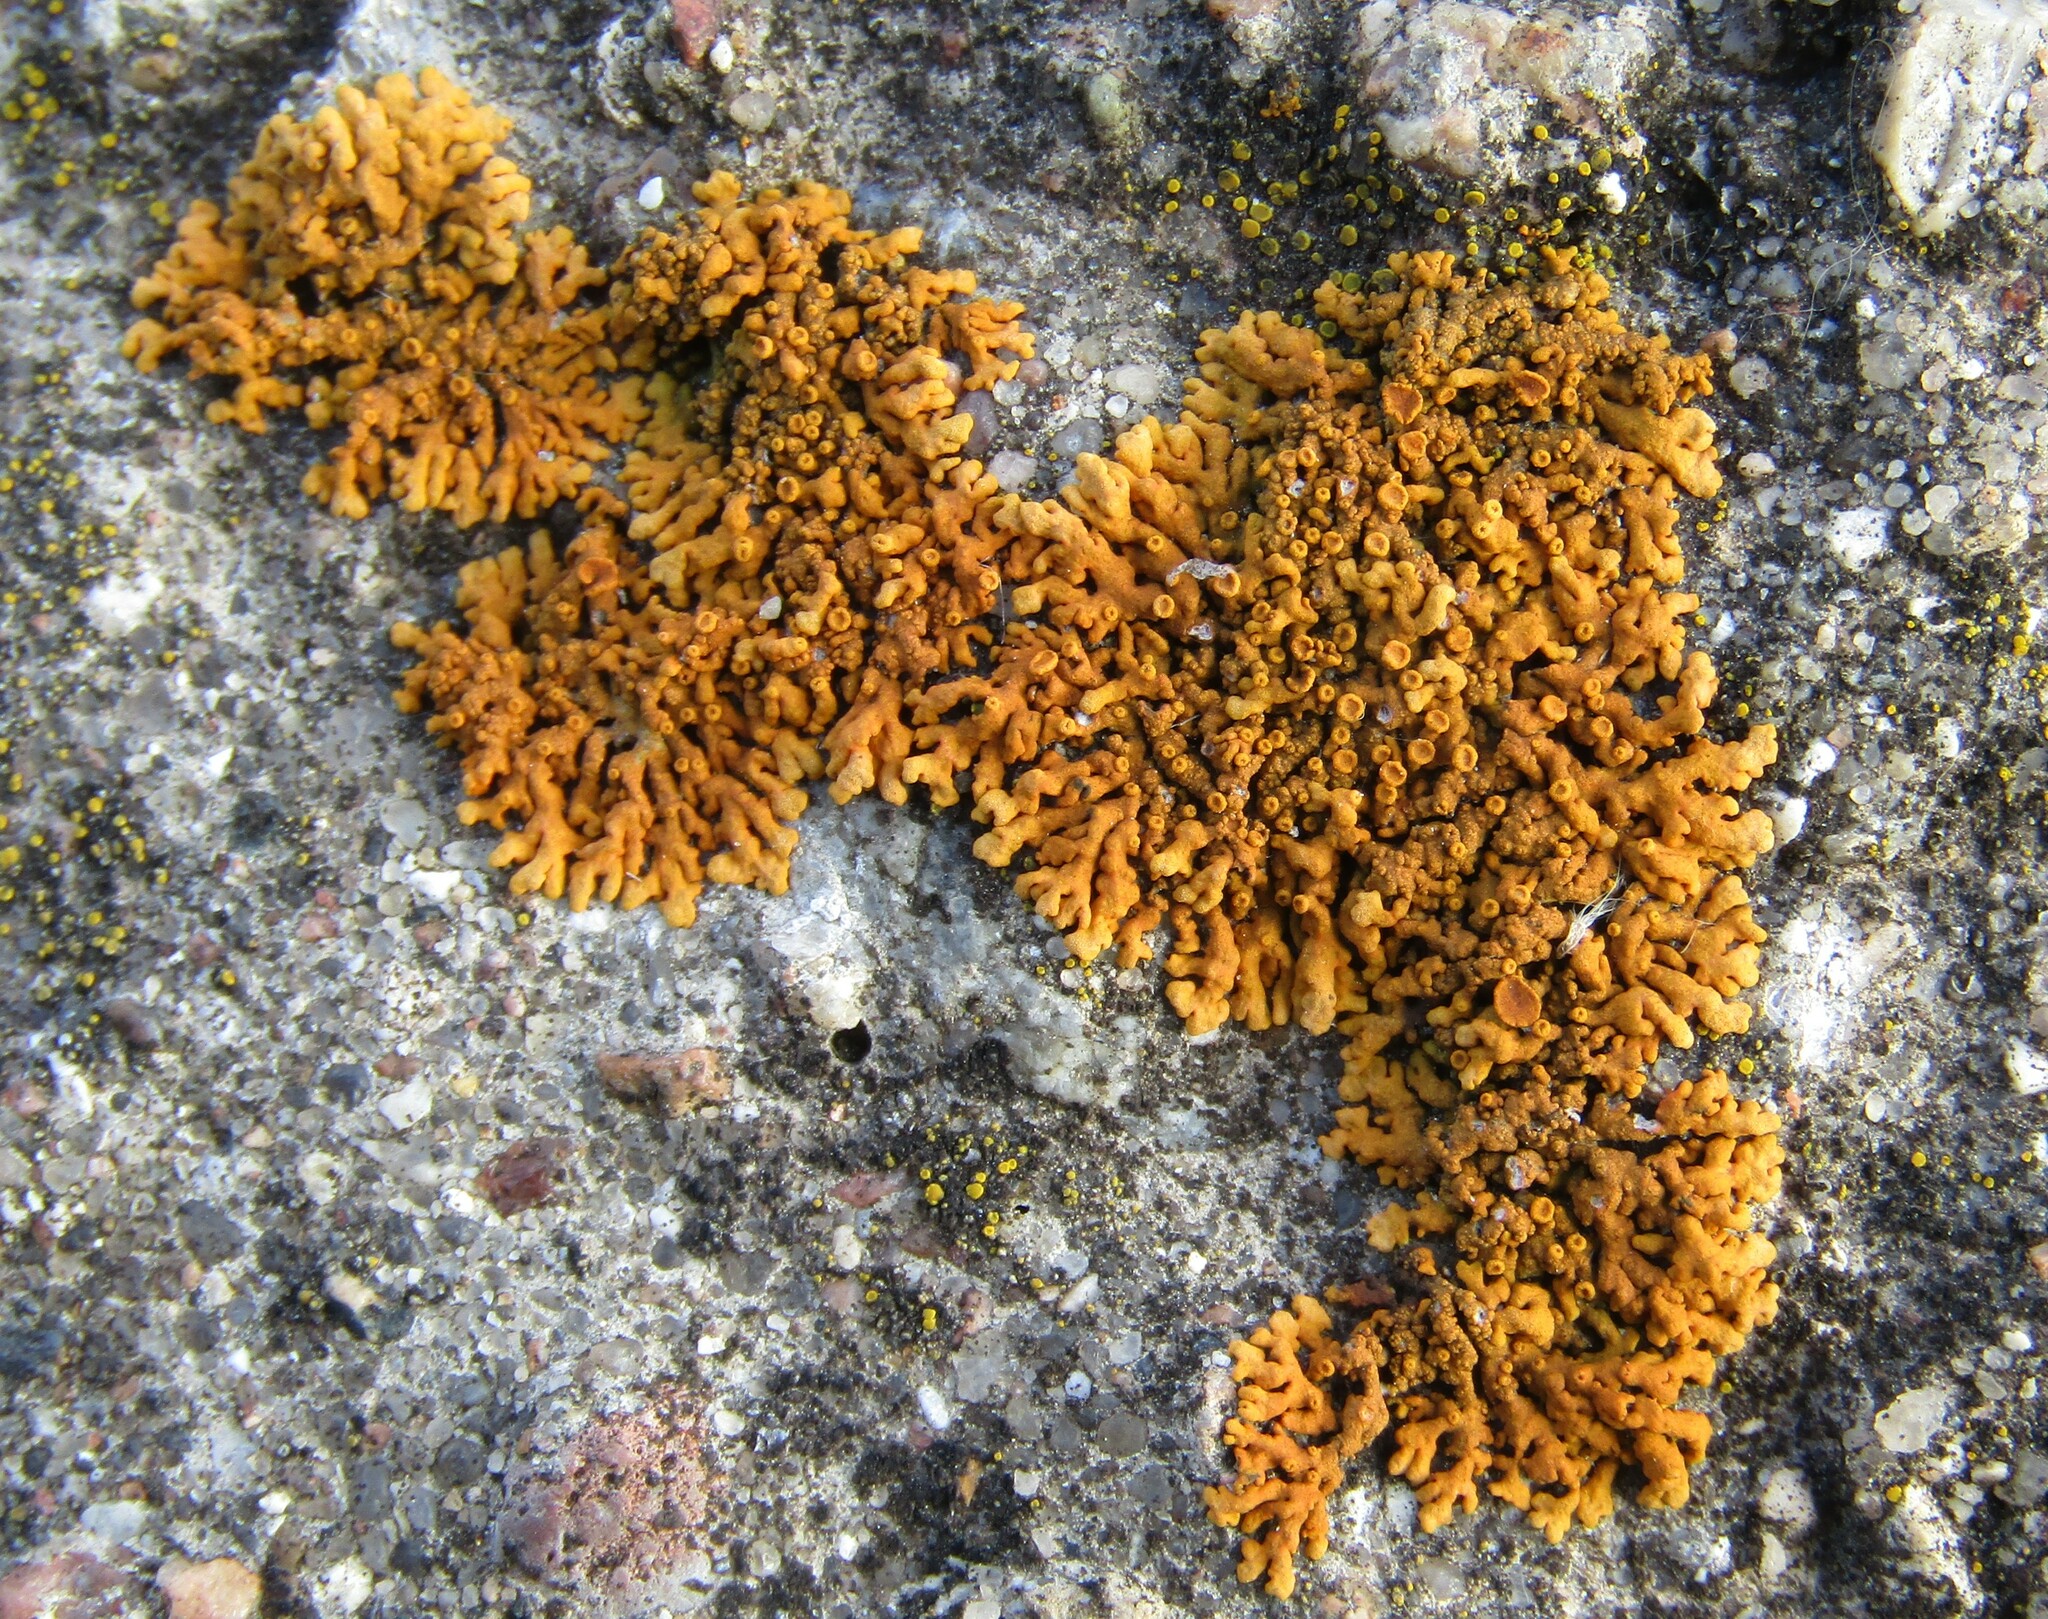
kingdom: Fungi
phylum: Ascomycota
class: Lecanoromycetes
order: Teloschistales
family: Teloschistaceae
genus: Xanthoria
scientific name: Xanthoria elegans
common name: Elegant sunburst lichen
